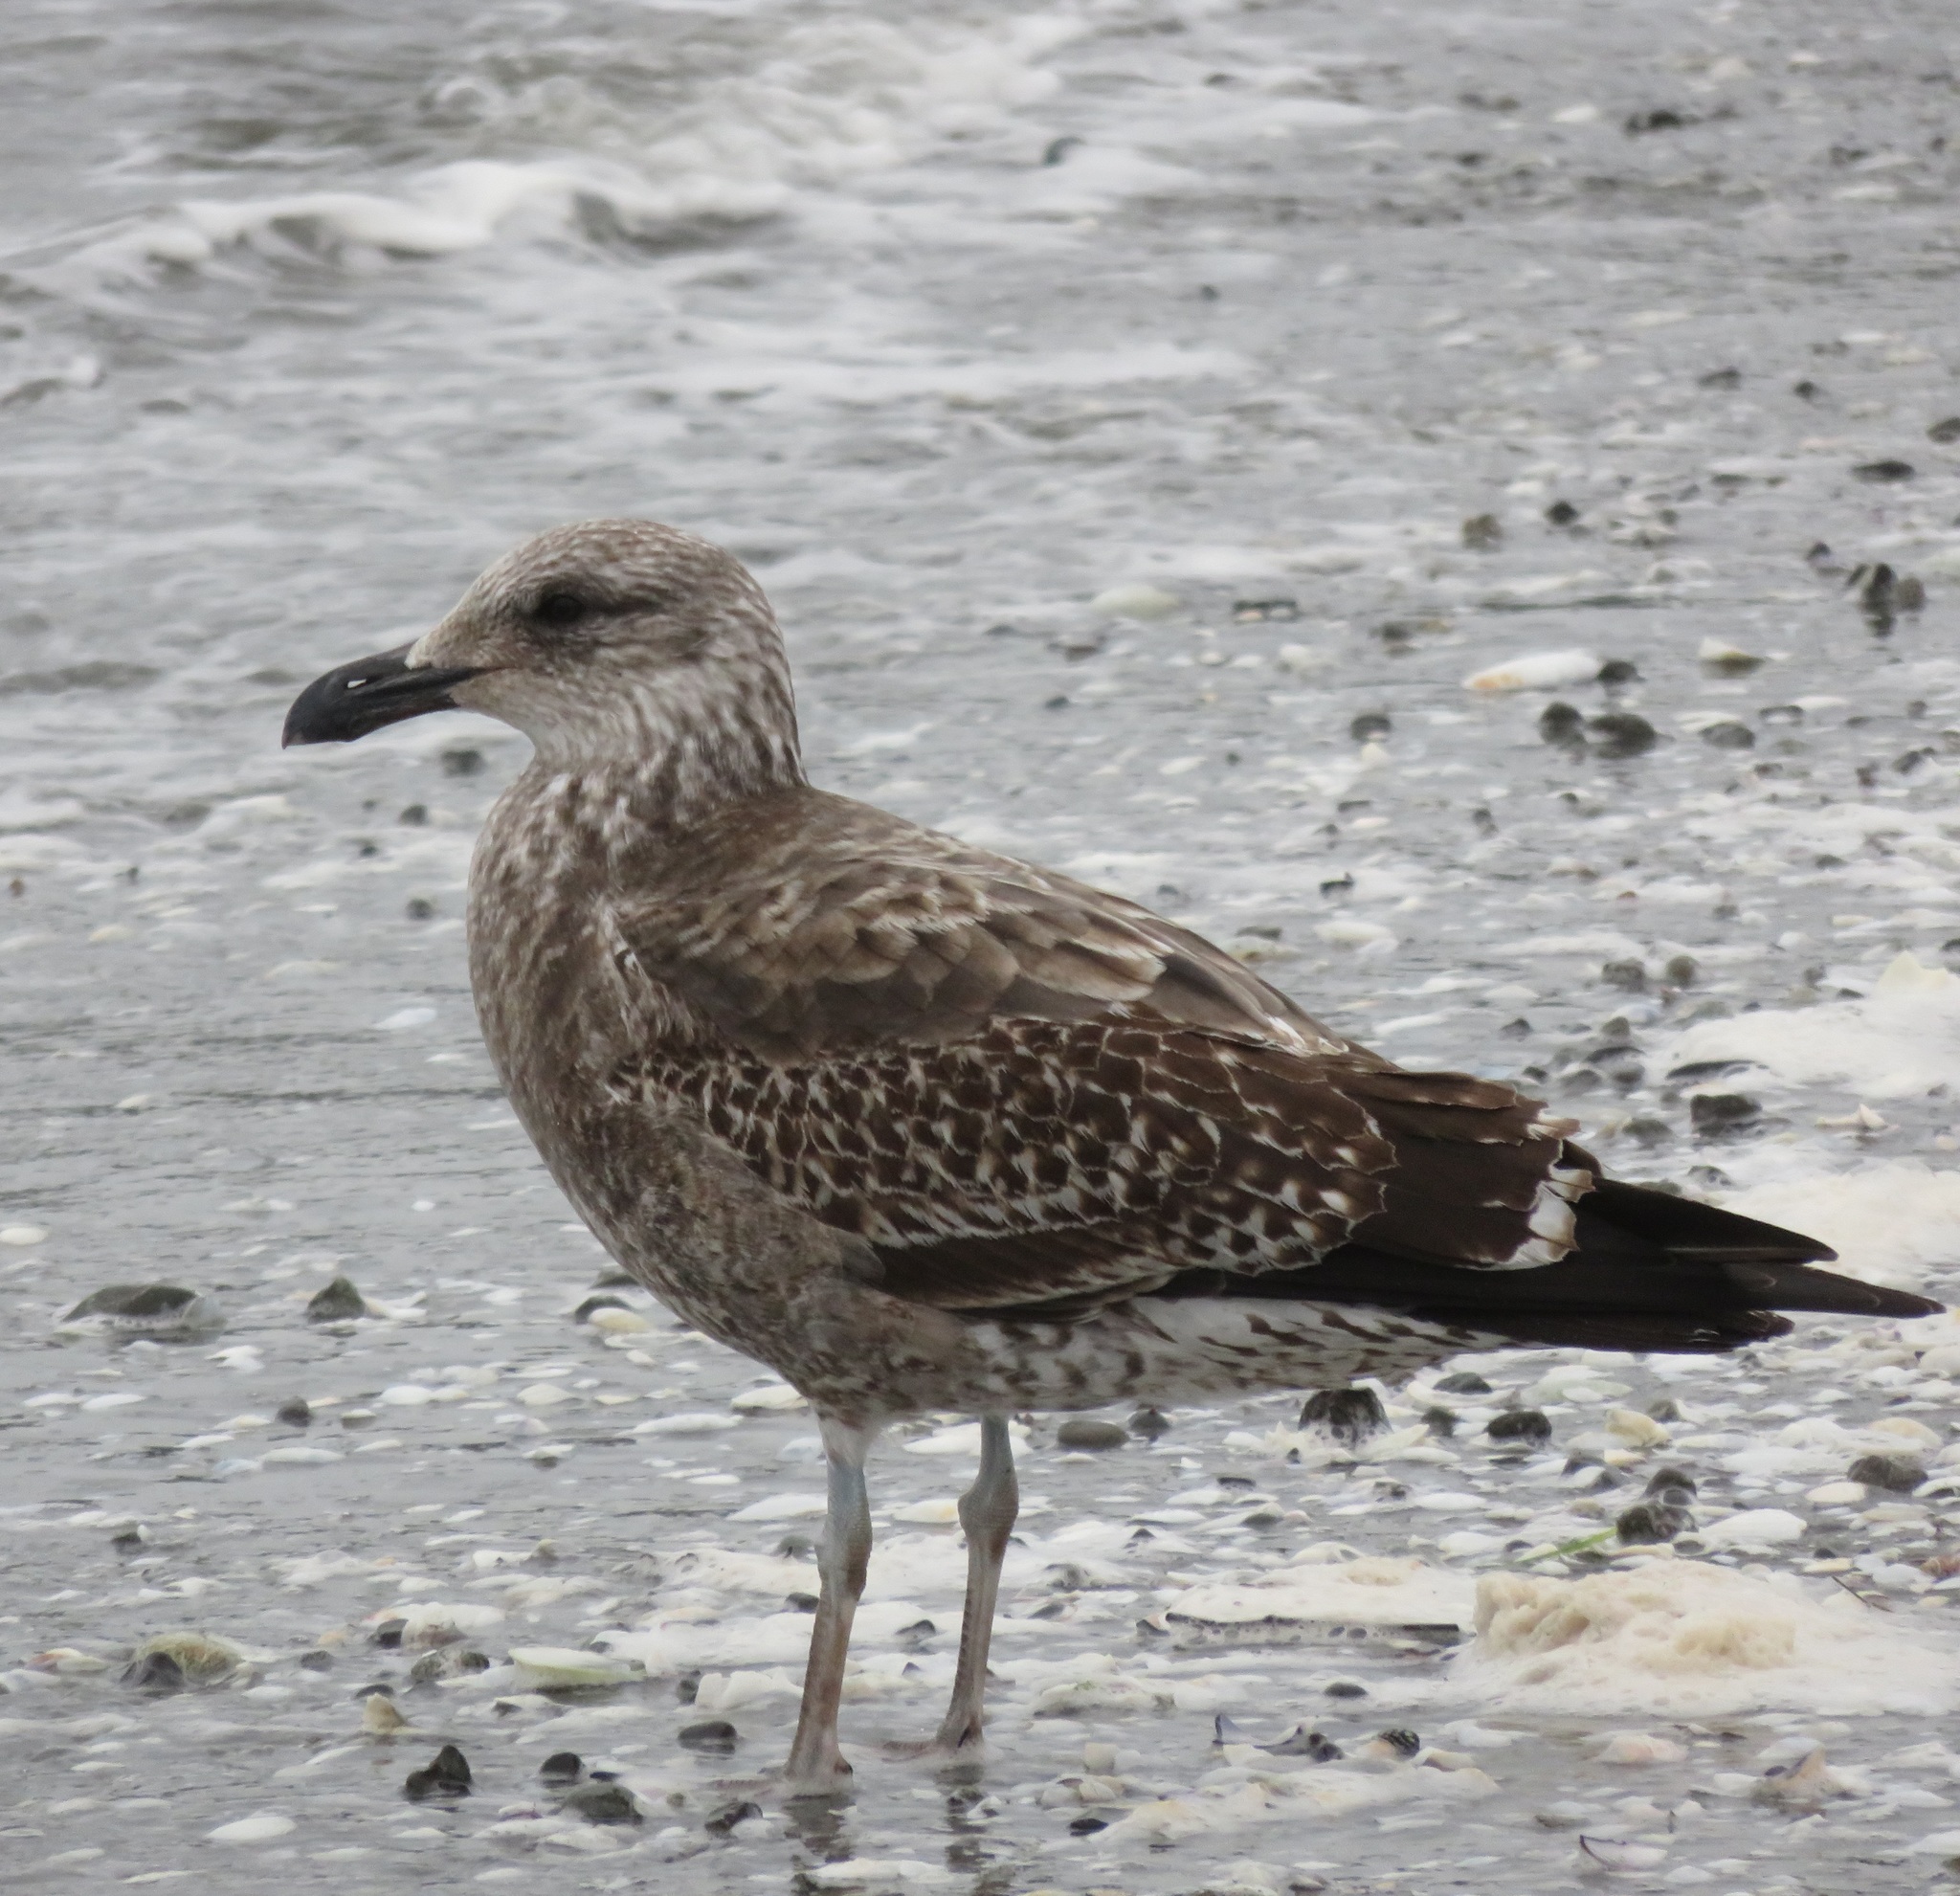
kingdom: Animalia
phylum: Chordata
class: Aves
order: Charadriiformes
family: Laridae
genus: Larus
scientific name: Larus dominicanus
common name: Kelp gull
